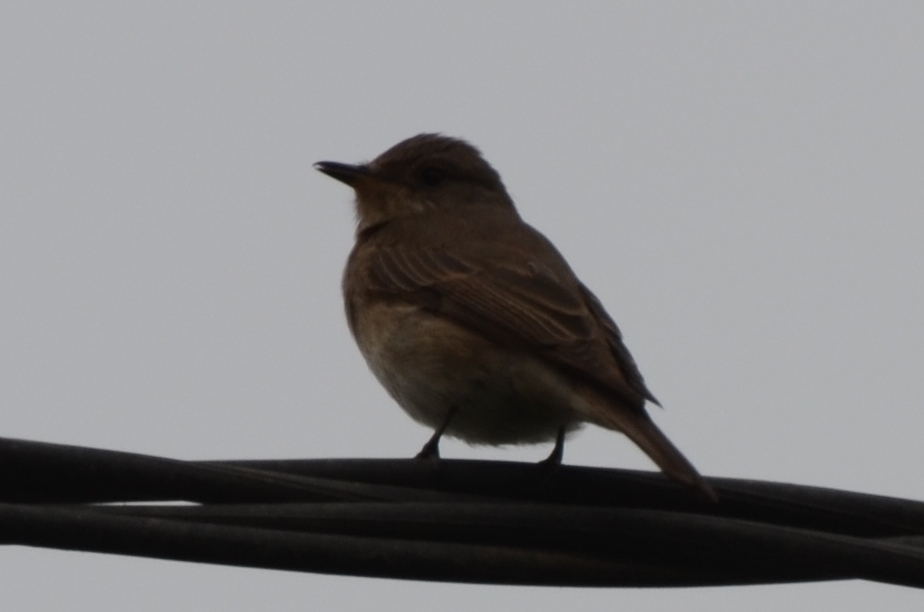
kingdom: Animalia
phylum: Chordata
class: Aves
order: Passeriformes
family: Muscicapidae
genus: Muscicapa
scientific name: Muscicapa striata
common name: Spotted flycatcher
